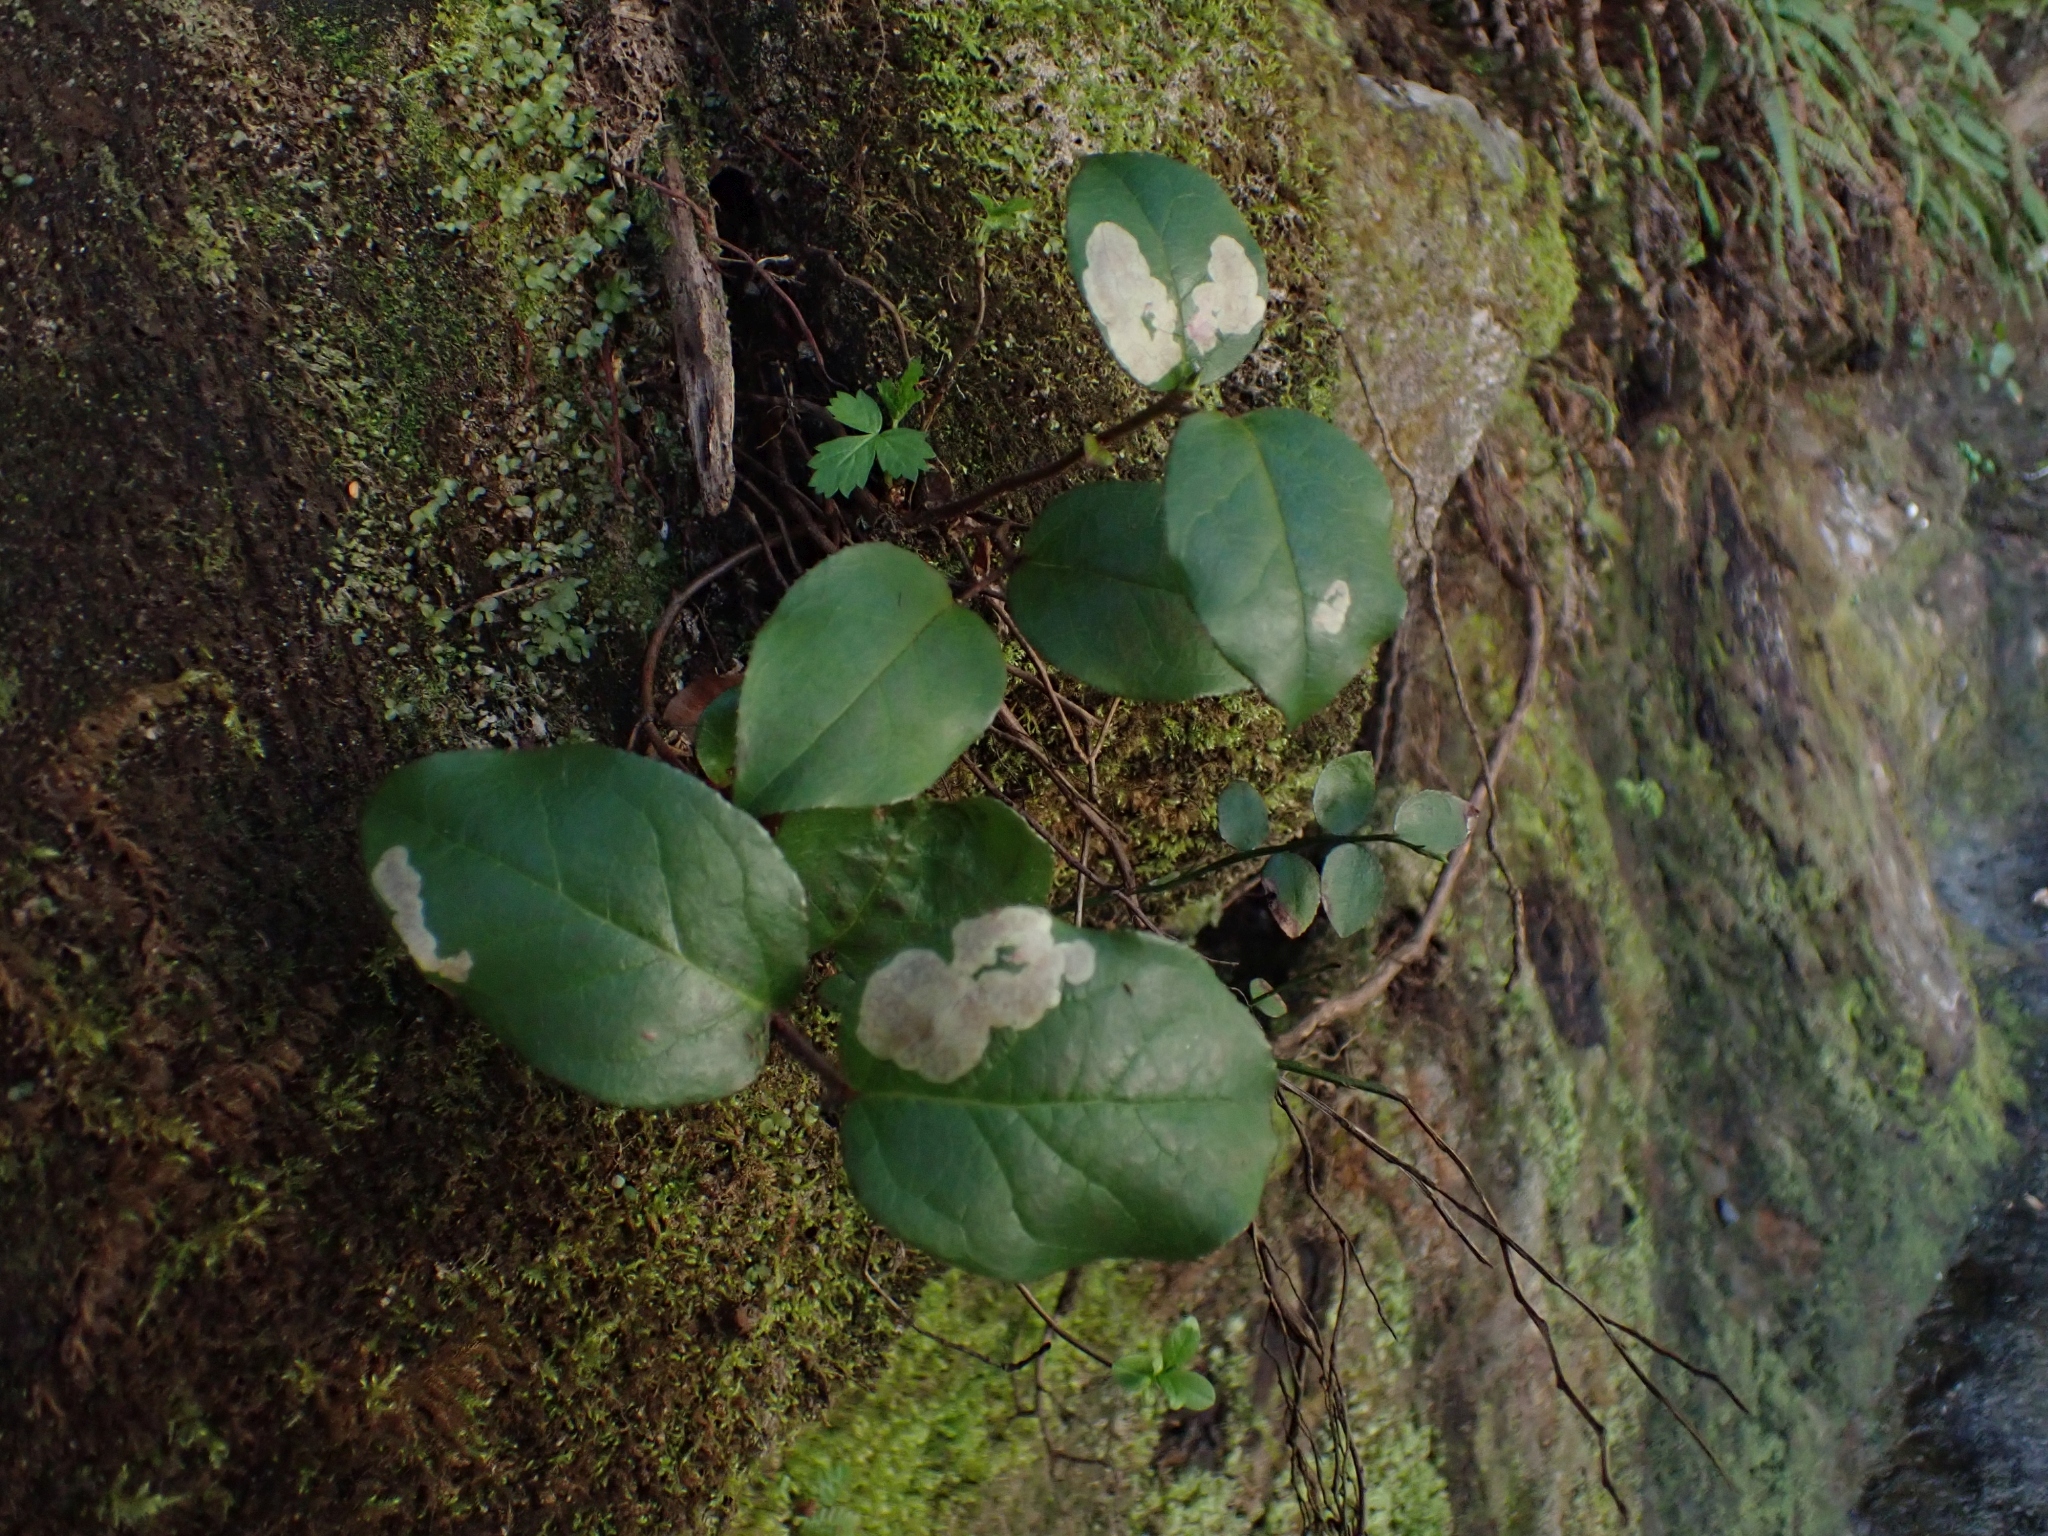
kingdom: Plantae
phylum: Tracheophyta
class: Magnoliopsida
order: Ericales
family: Ericaceae
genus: Gaultheria
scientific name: Gaultheria shallon
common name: Shallon
